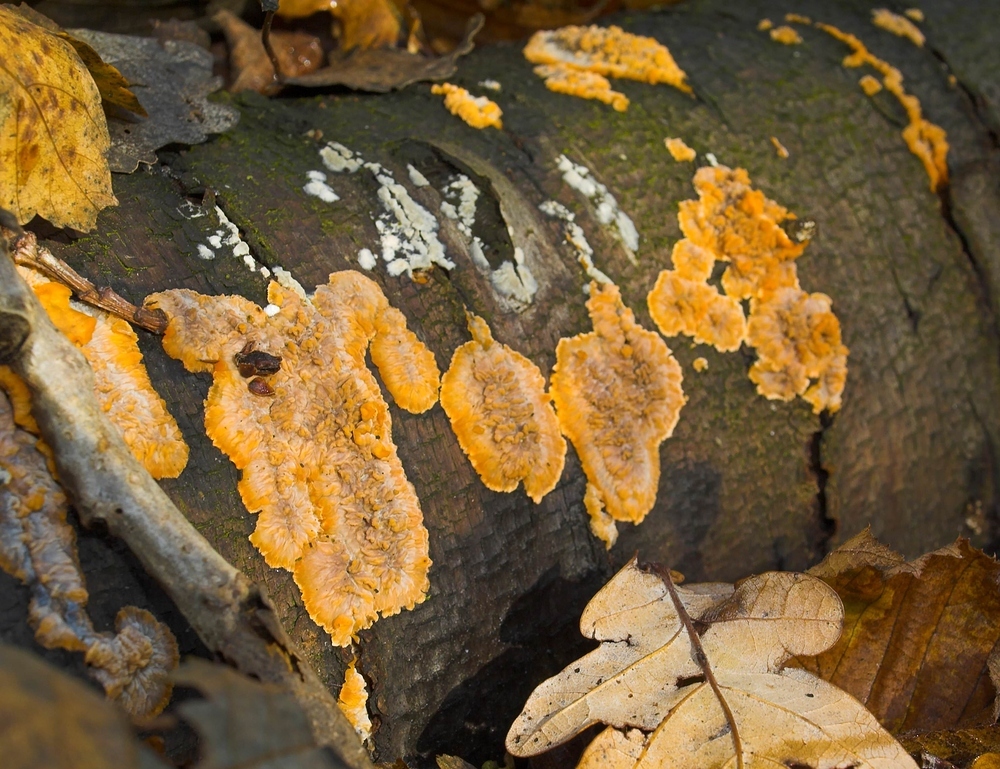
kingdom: Fungi
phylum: Basidiomycota
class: Agaricomycetes
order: Polyporales
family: Meruliaceae
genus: Phlebia
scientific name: Phlebia radiata
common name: Wrinkled crust
